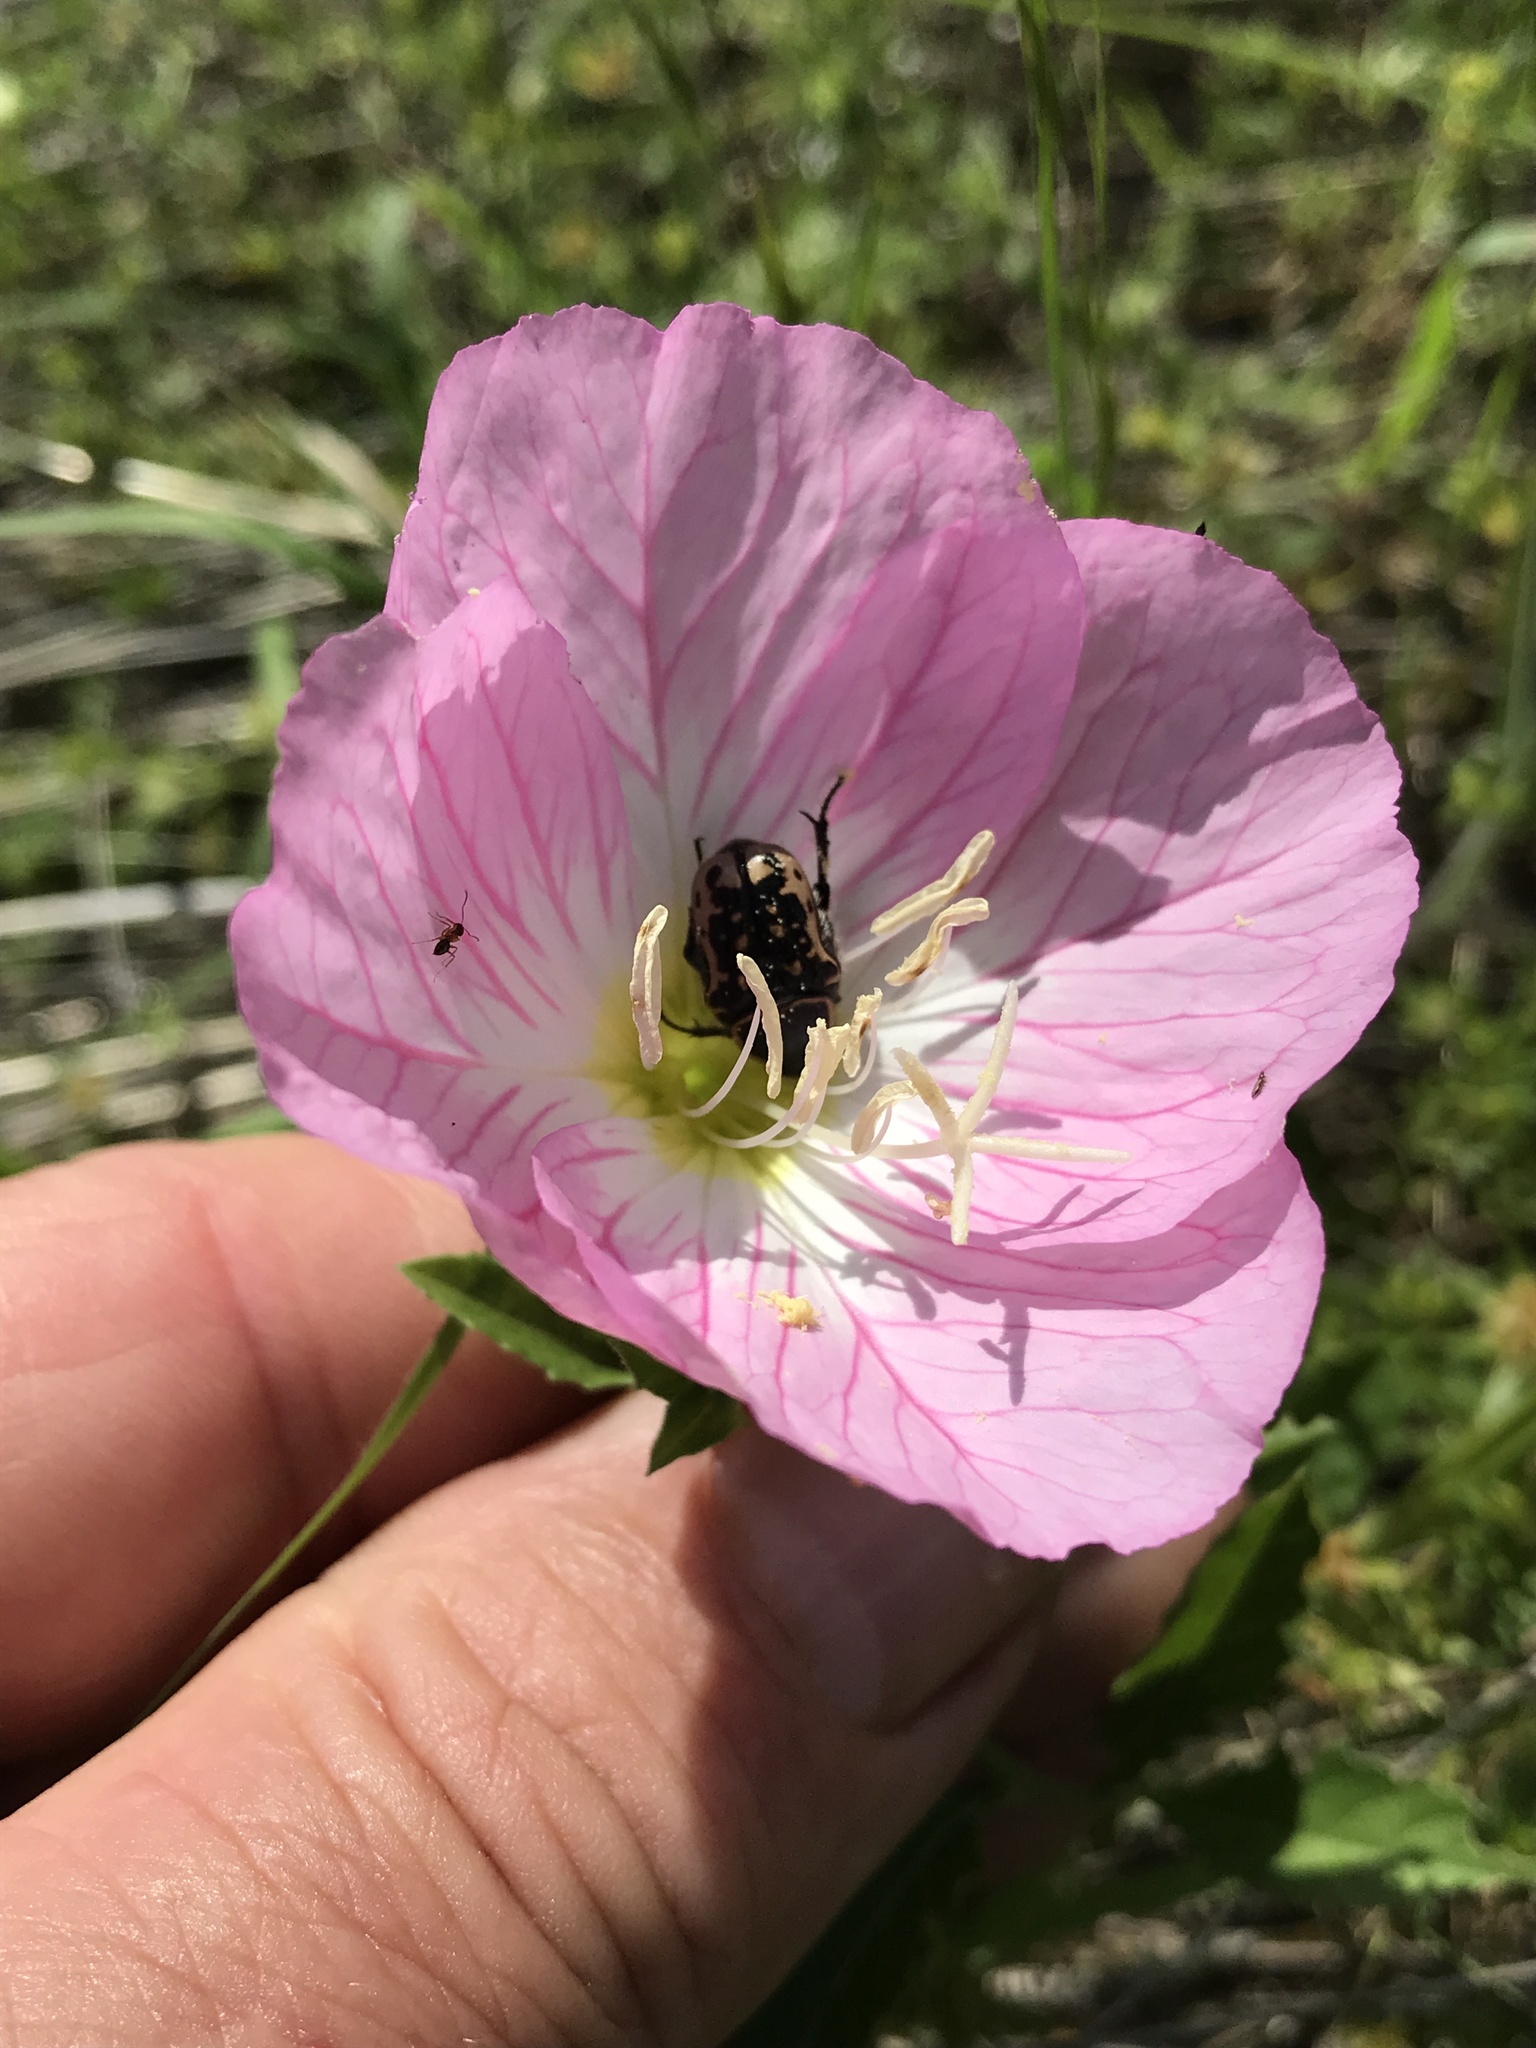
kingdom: Animalia
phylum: Arthropoda
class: Insecta
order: Coleoptera
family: Scarabaeidae
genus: Euphoria
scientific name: Euphoria kernii
